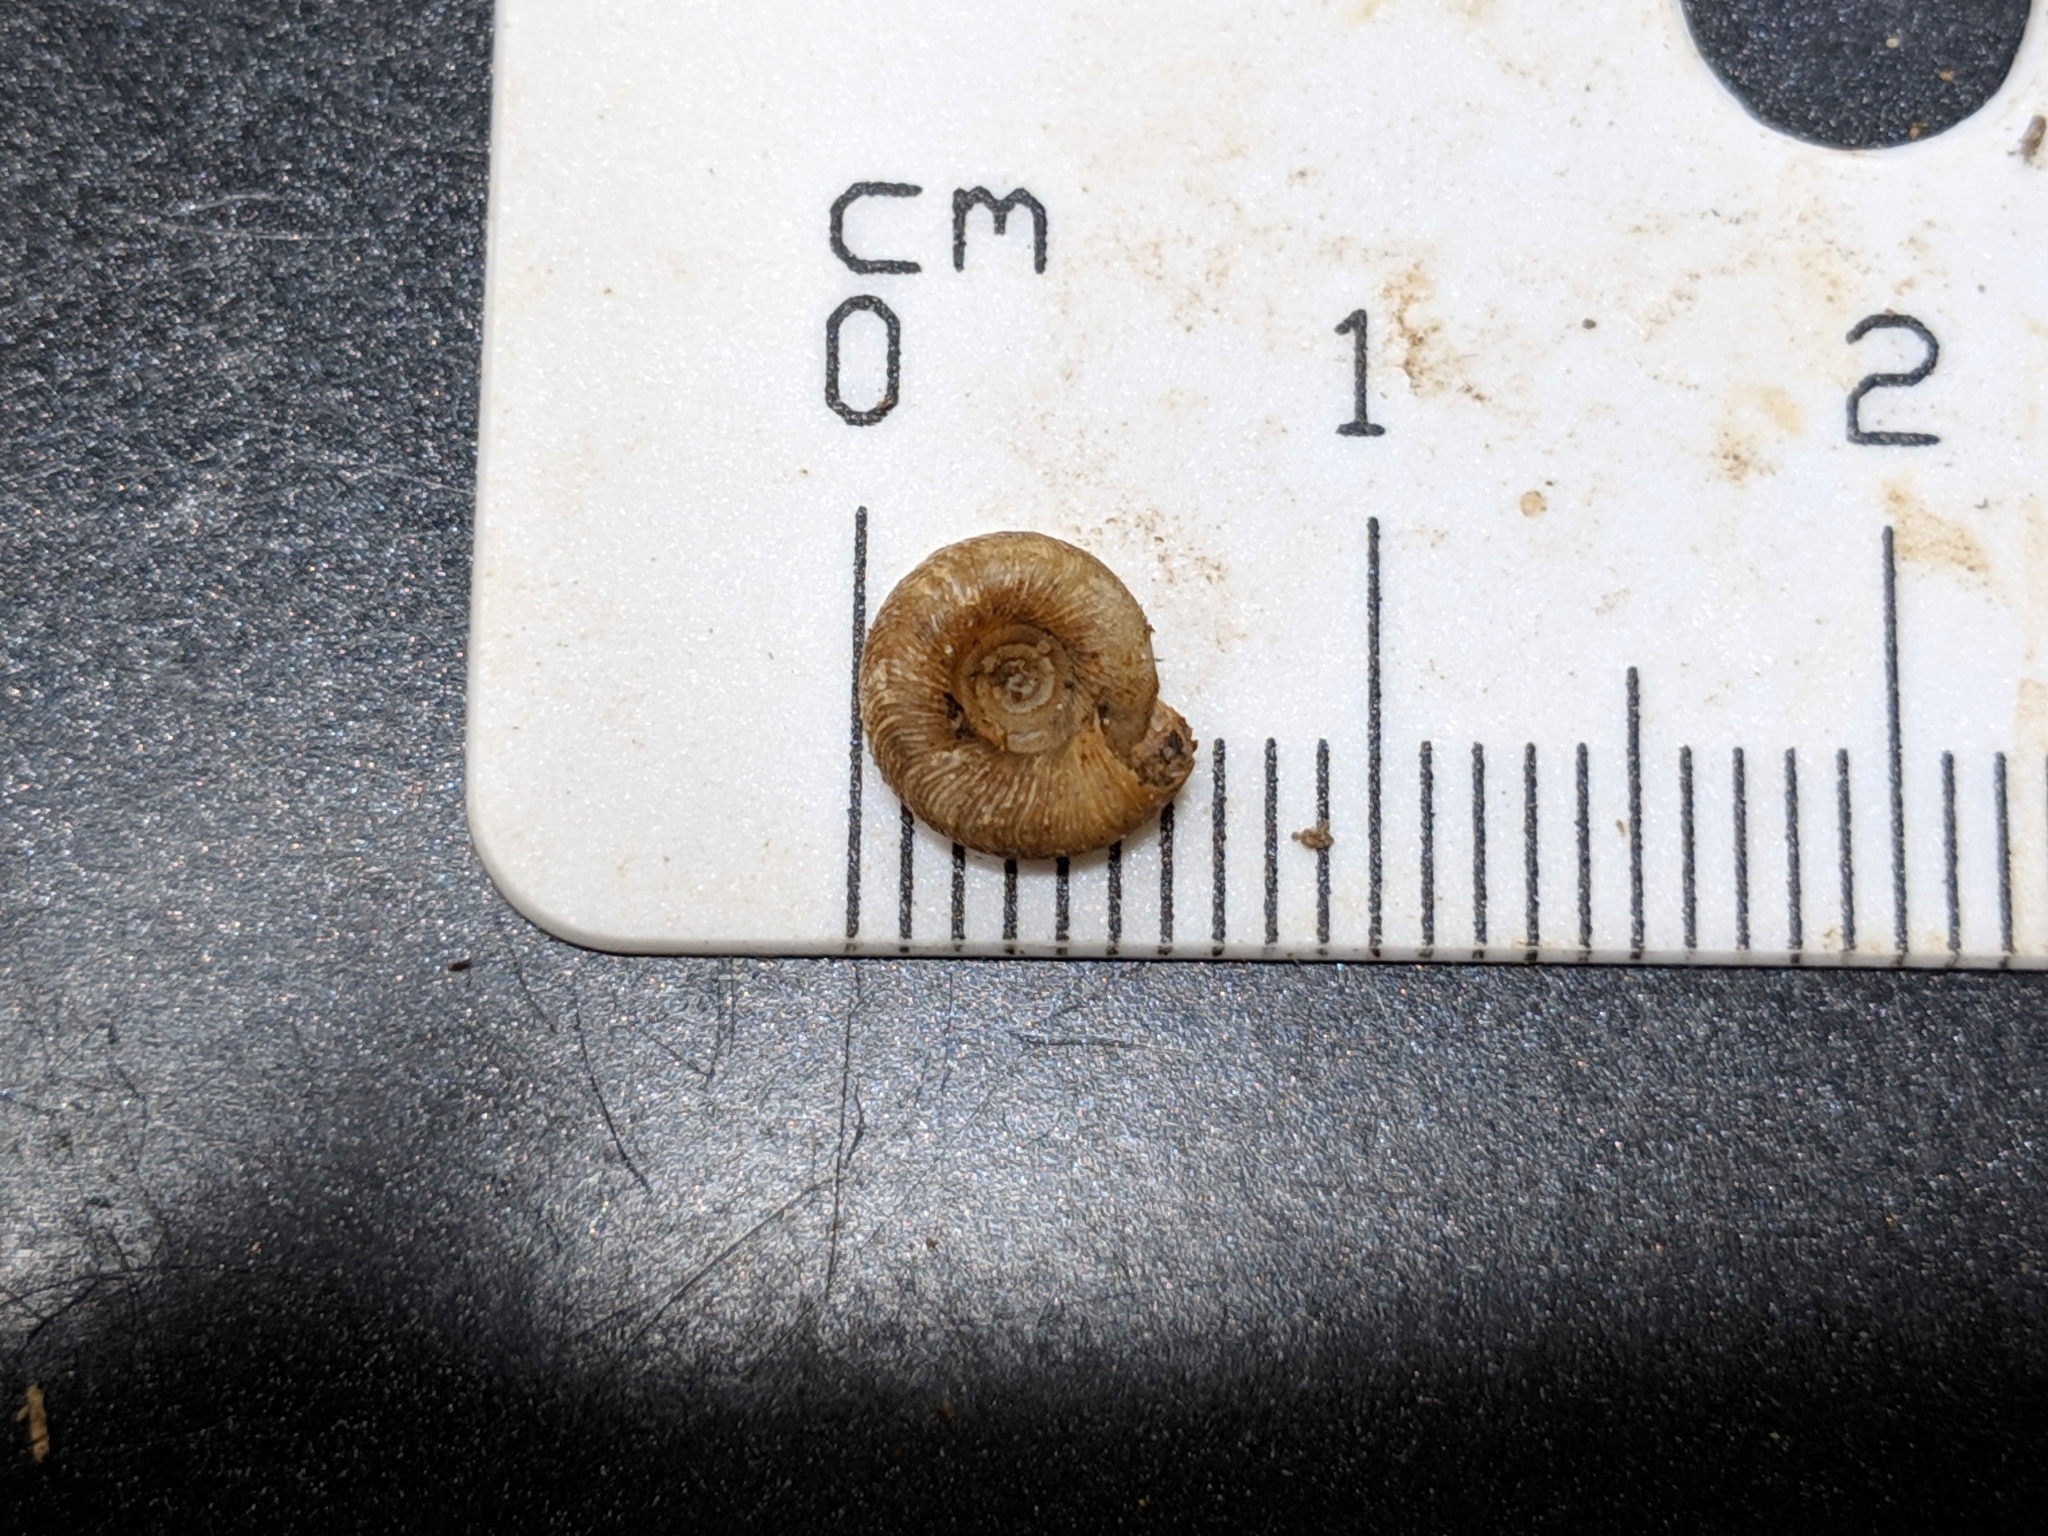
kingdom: Animalia
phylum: Mollusca
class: Gastropoda
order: Stylommatophora
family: Discidae
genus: Discus
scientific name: Discus patulus
